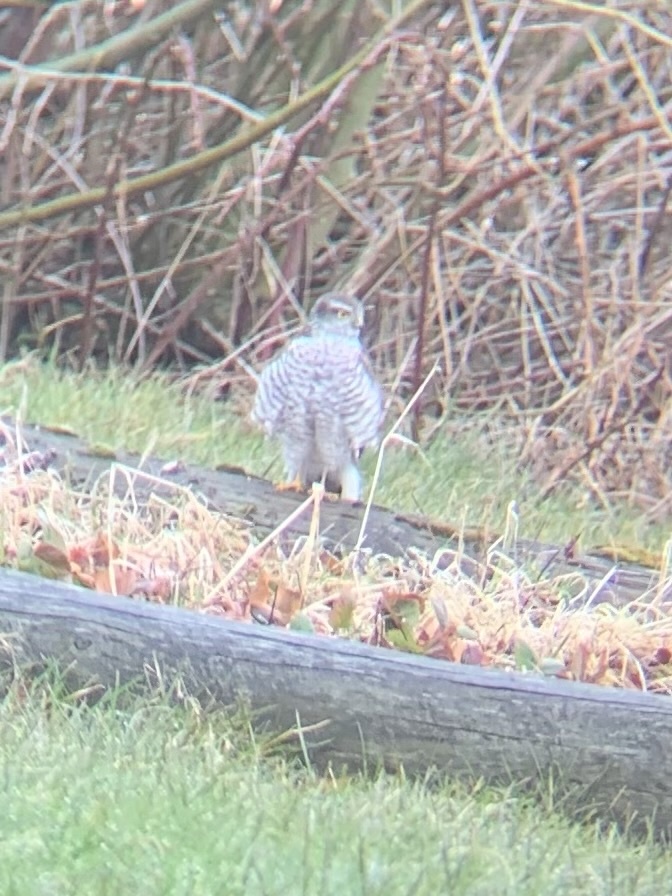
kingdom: Animalia
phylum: Chordata
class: Aves
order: Accipitriformes
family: Accipitridae
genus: Accipiter
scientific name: Accipiter nisus
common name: Eurasian sparrowhawk
